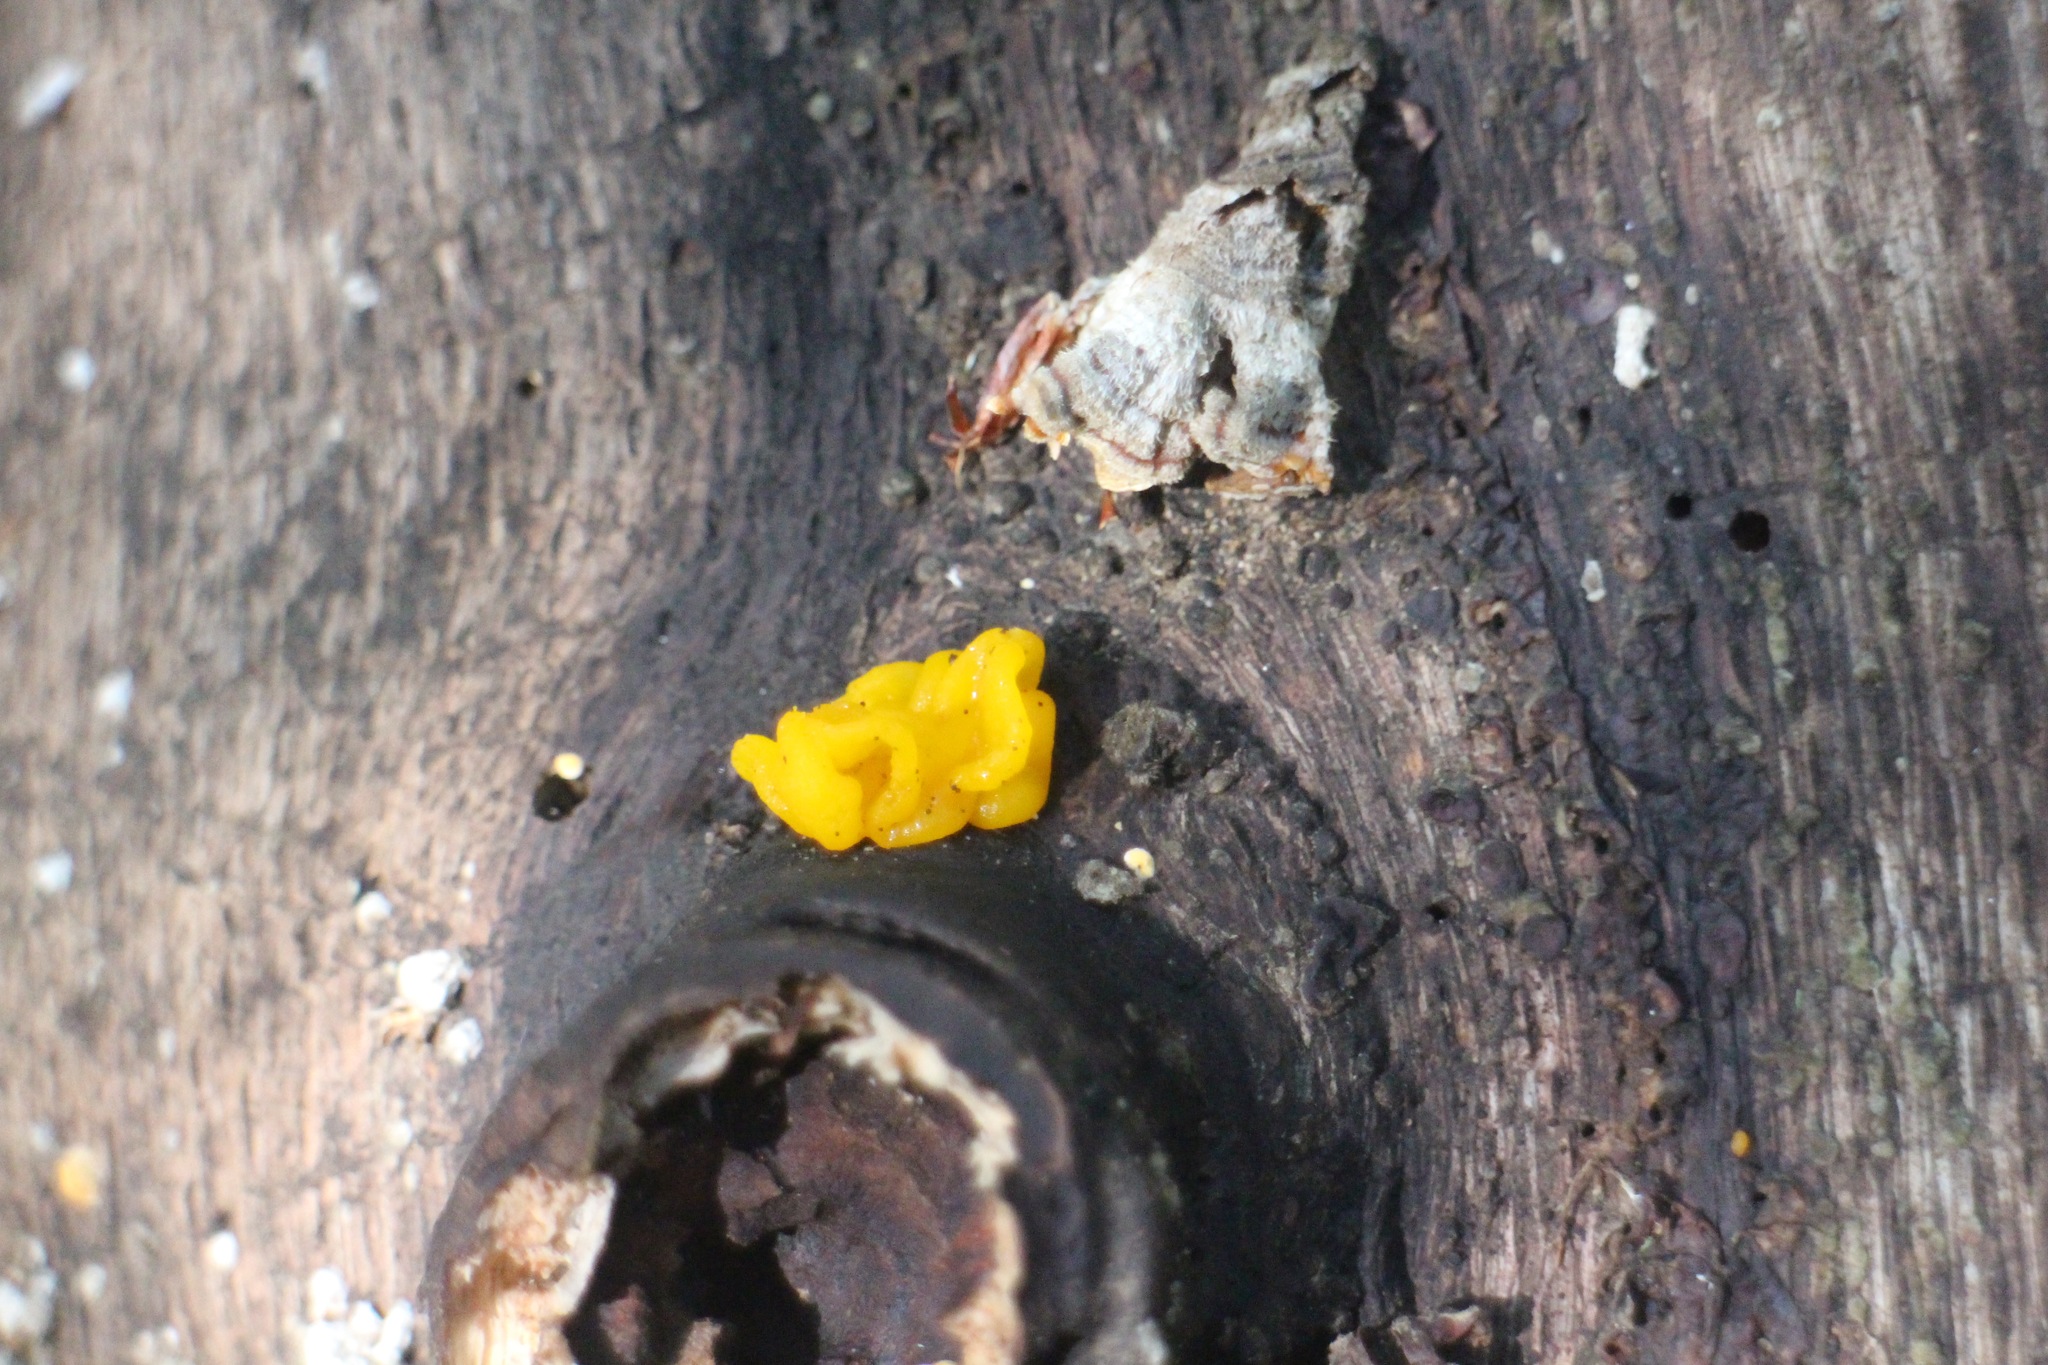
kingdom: Fungi
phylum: Basidiomycota
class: Tremellomycetes
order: Tremellales
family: Naemateliaceae
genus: Naematelia
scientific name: Naematelia aurantia
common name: Golden ear
